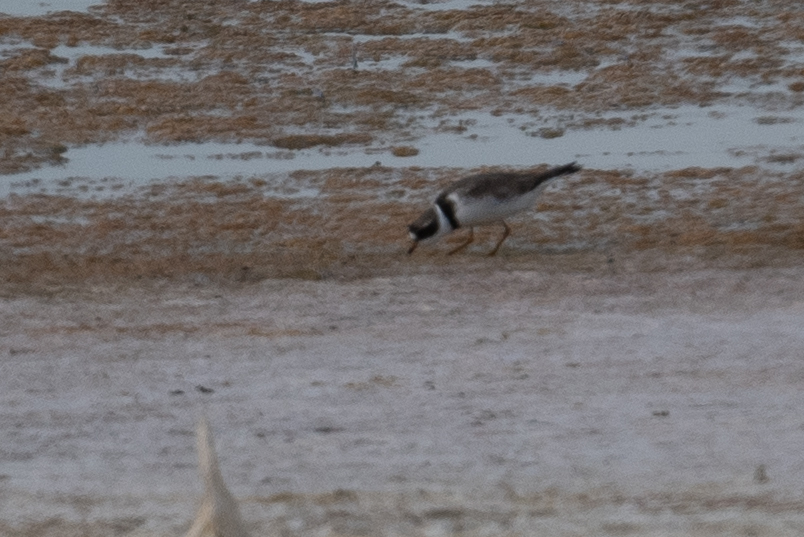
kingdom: Animalia
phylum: Chordata
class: Aves
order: Charadriiformes
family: Charadriidae
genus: Charadrius
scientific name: Charadrius semipalmatus
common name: Semipalmated plover
